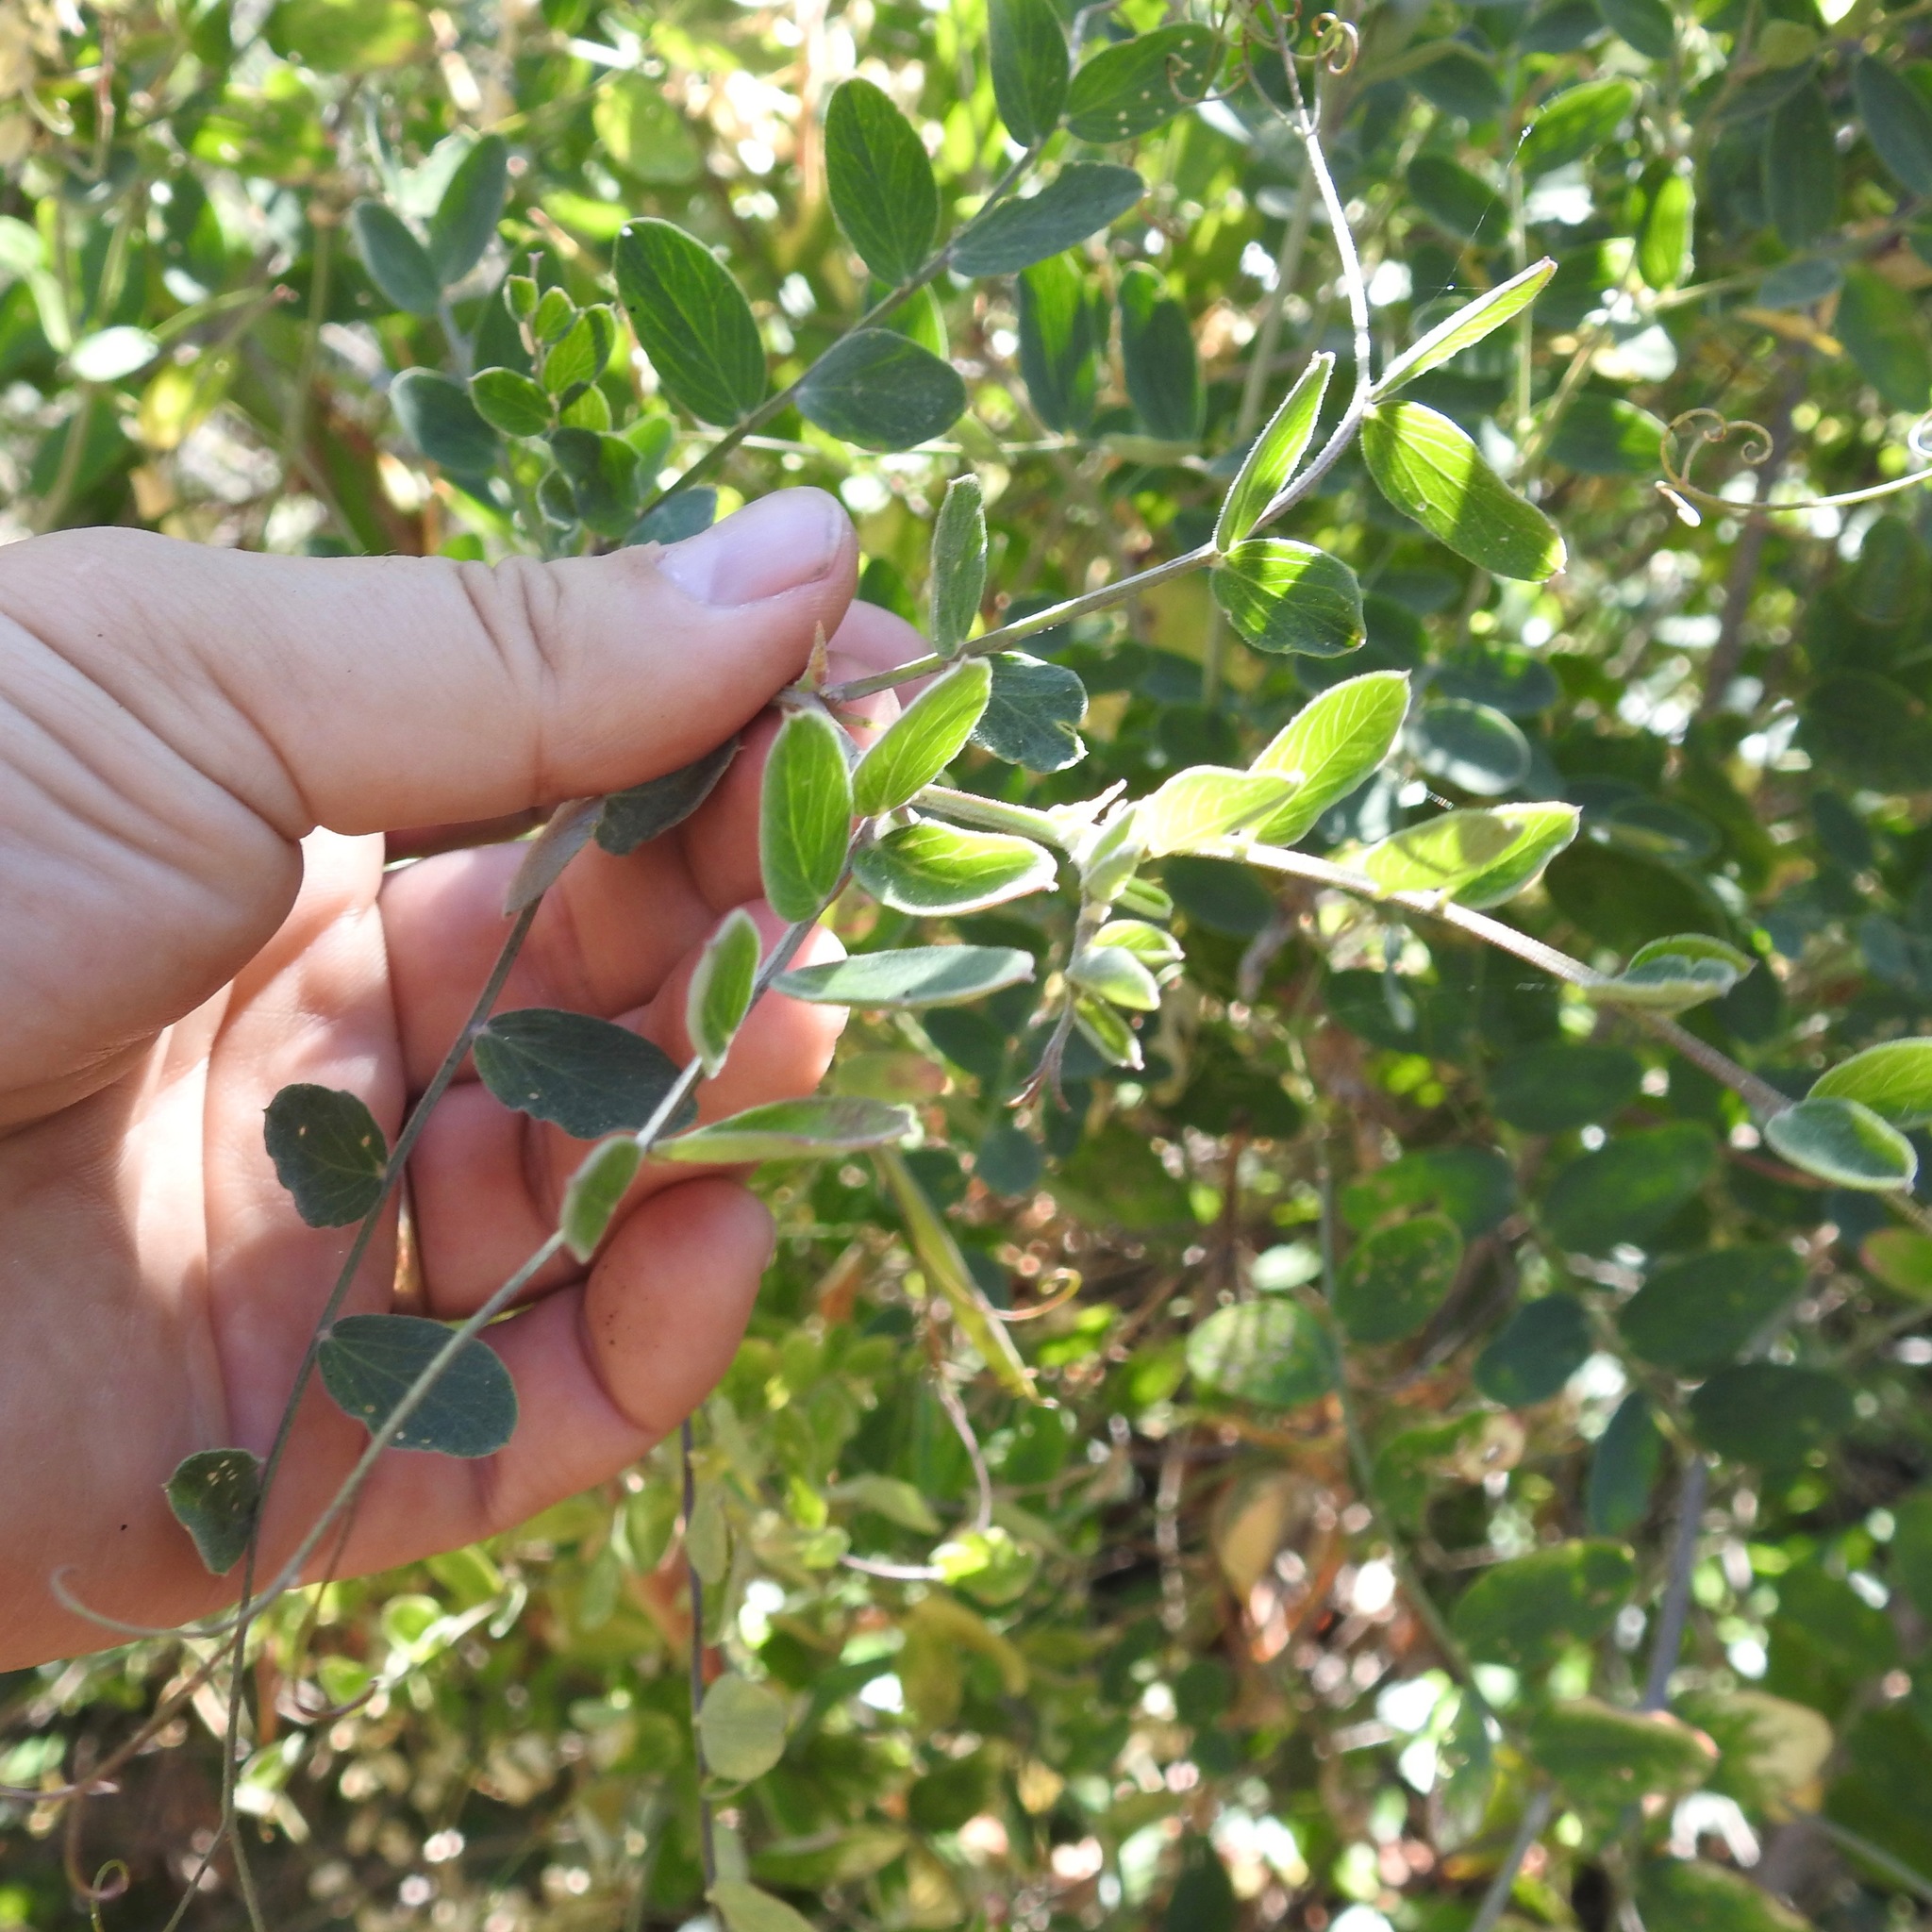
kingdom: Plantae
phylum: Tracheophyta
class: Magnoliopsida
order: Fabales
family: Fabaceae
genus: Lathyrus
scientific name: Lathyrus vestitus
